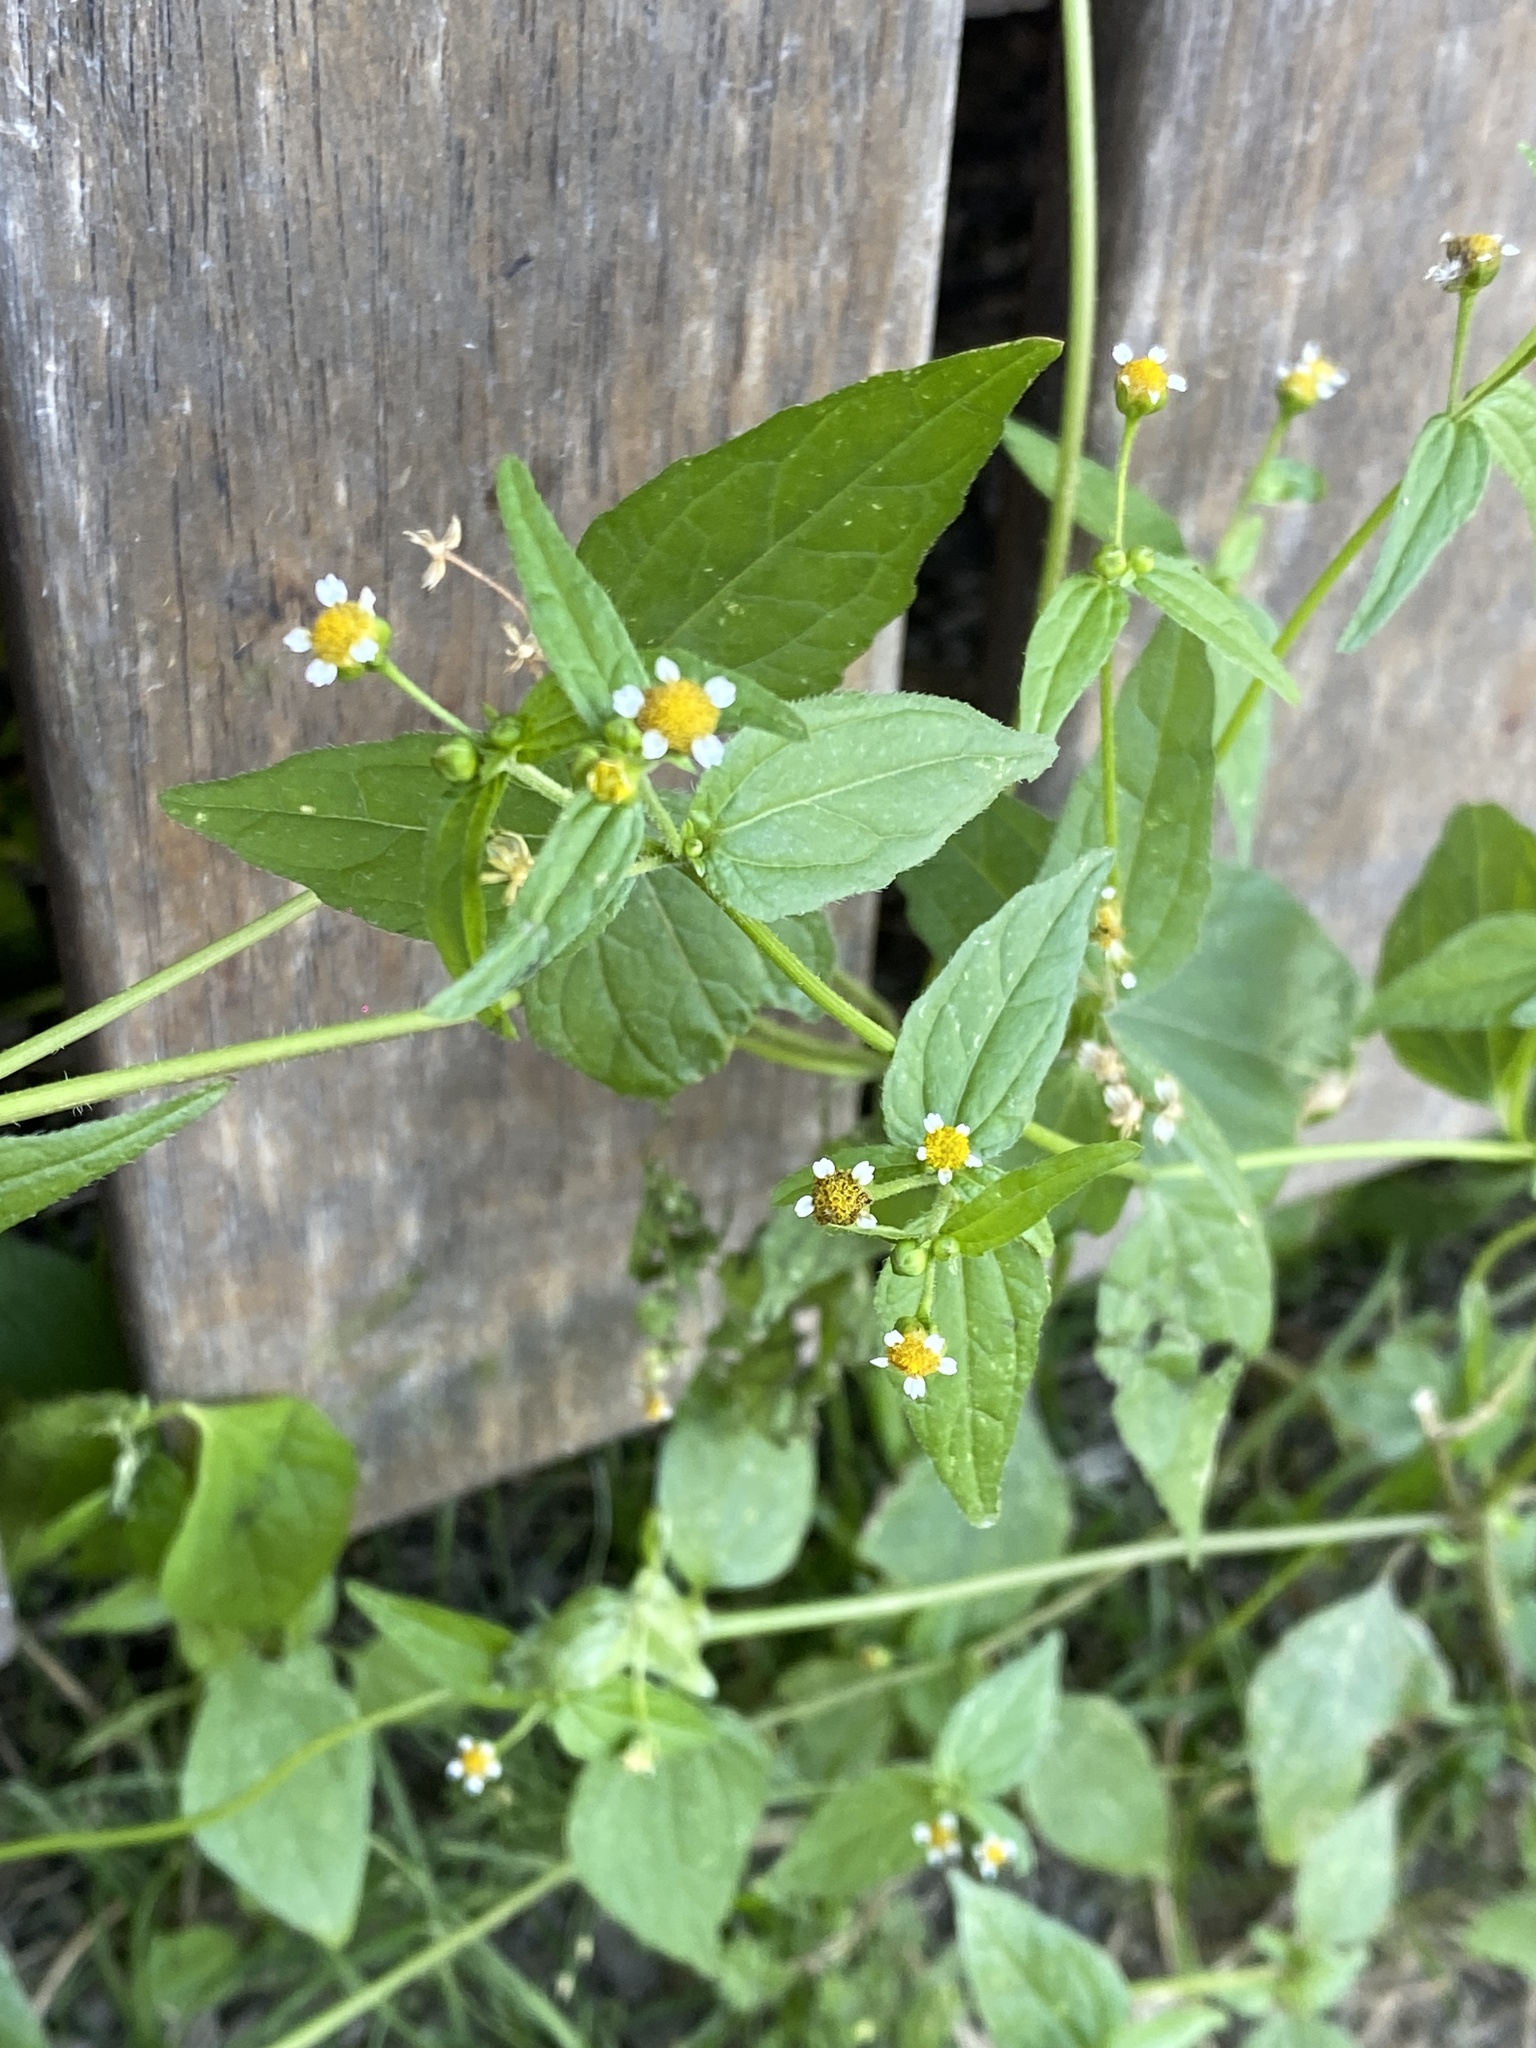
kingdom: Plantae
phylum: Tracheophyta
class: Magnoliopsida
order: Asterales
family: Asteraceae
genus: Galinsoga
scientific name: Galinsoga parviflora
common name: Gallant soldier
